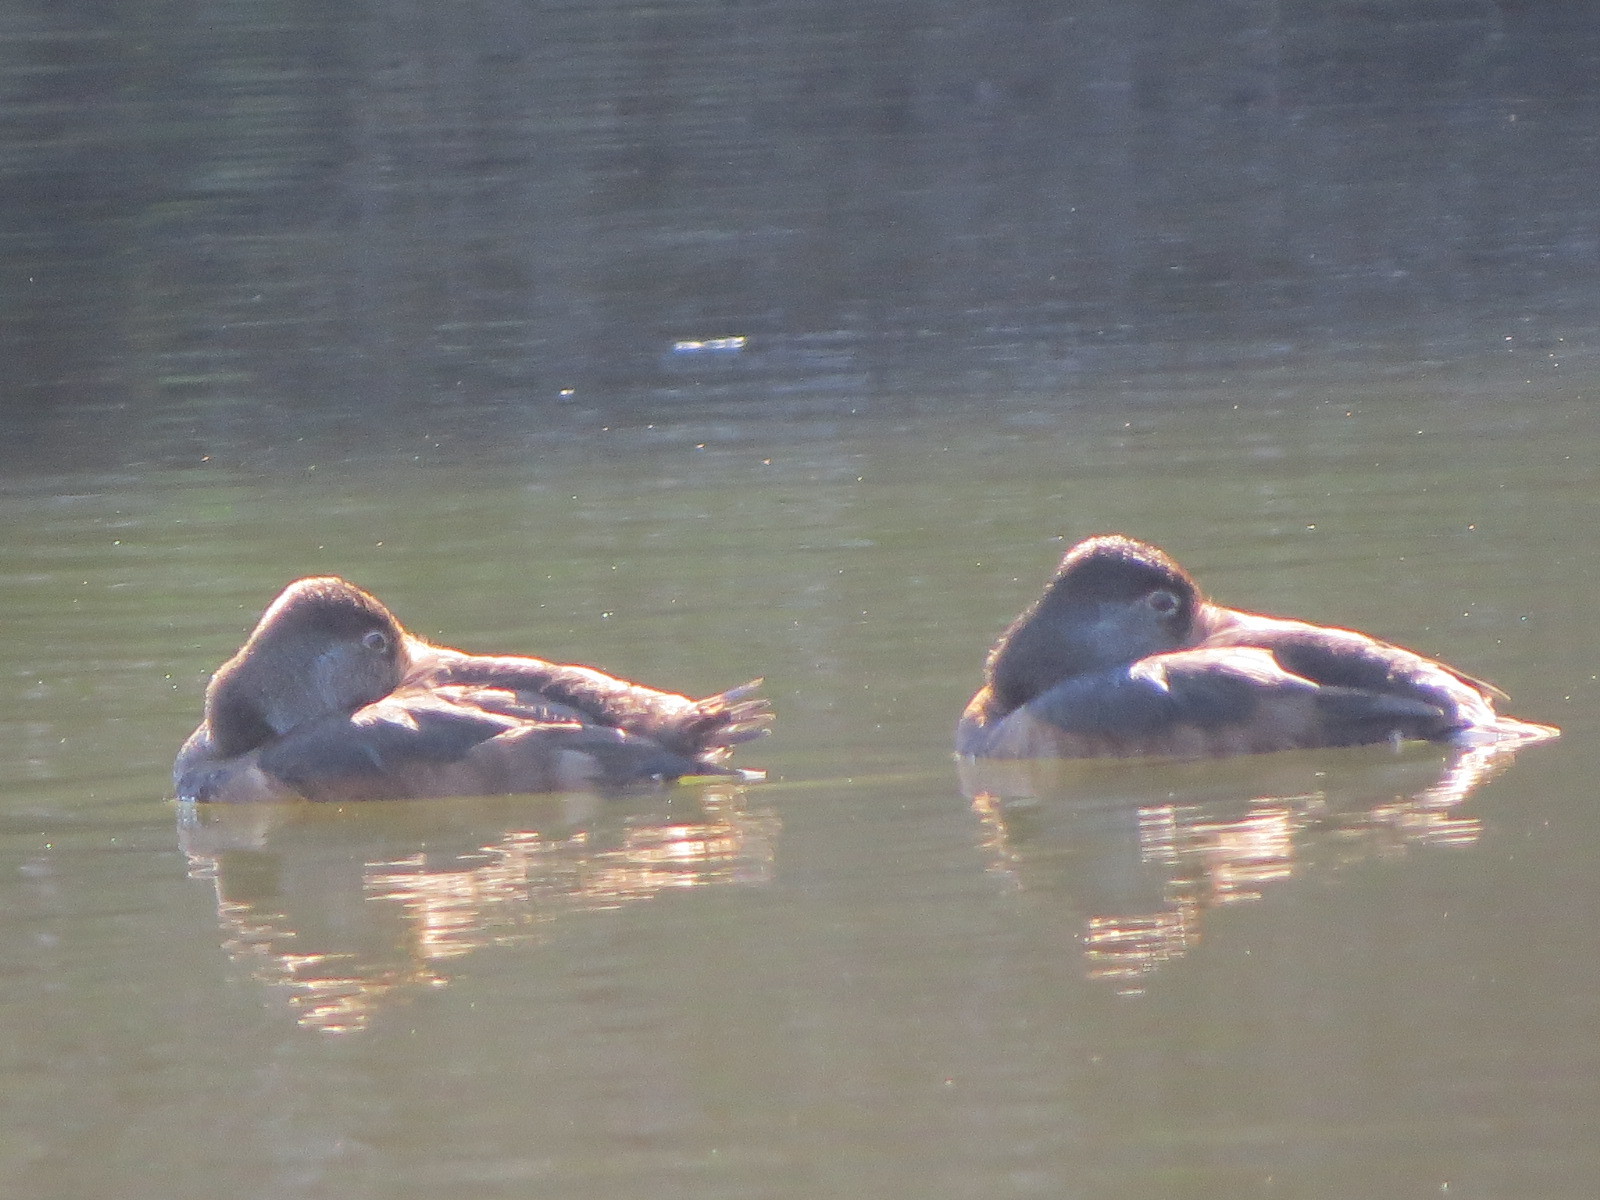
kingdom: Animalia
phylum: Chordata
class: Aves
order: Anseriformes
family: Anatidae
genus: Aythya
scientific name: Aythya collaris
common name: Ring-necked duck
